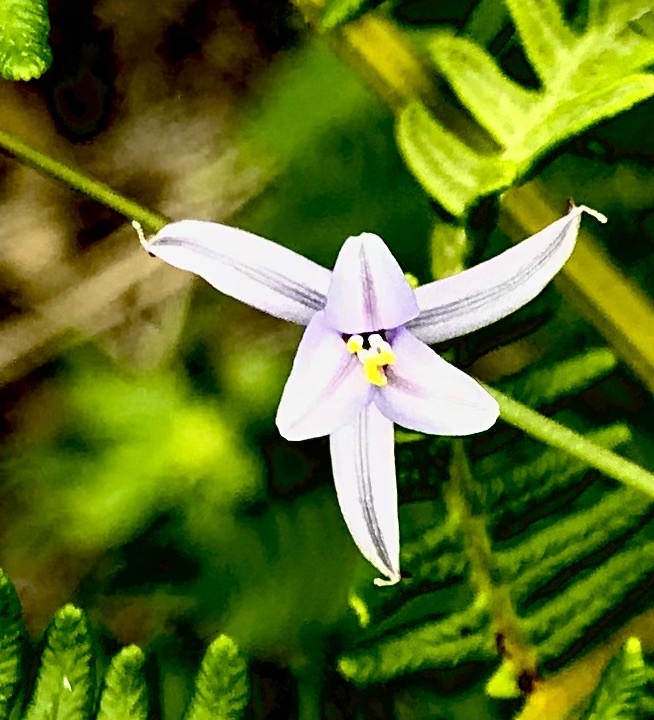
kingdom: Plantae
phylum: Tracheophyta
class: Liliopsida
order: Asparagales
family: Asphodelaceae
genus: Caesia
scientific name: Caesia contorta
